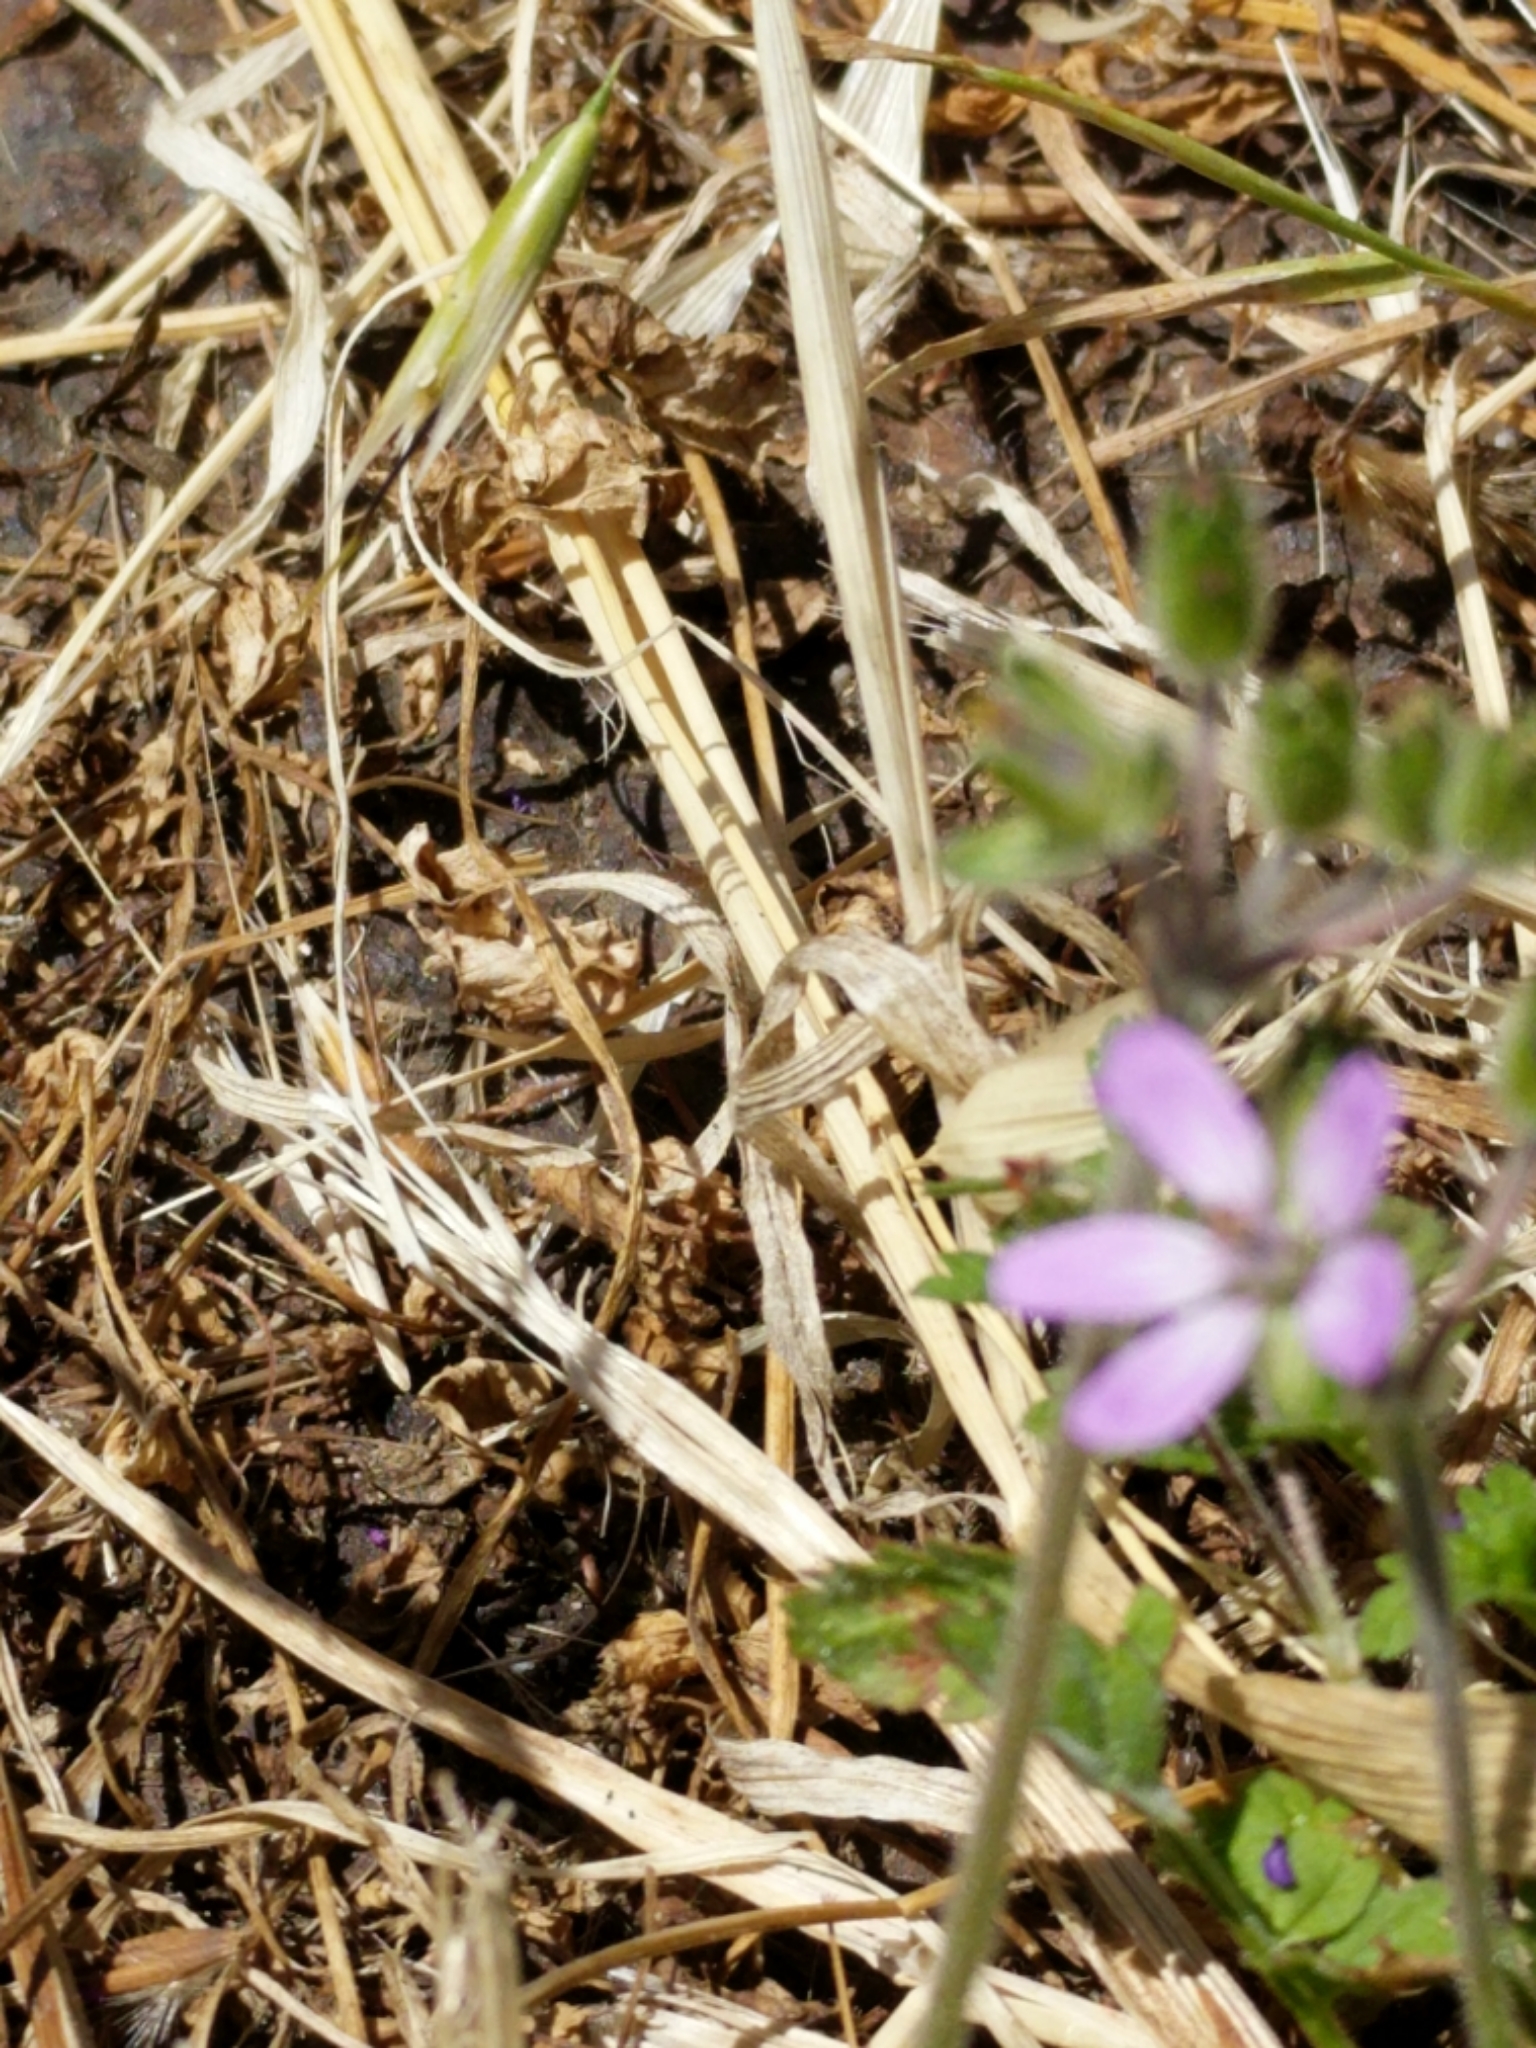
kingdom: Plantae
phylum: Tracheophyta
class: Magnoliopsida
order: Geraniales
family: Geraniaceae
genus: Erodium
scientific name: Erodium moschatum
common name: Musk stork's-bill
